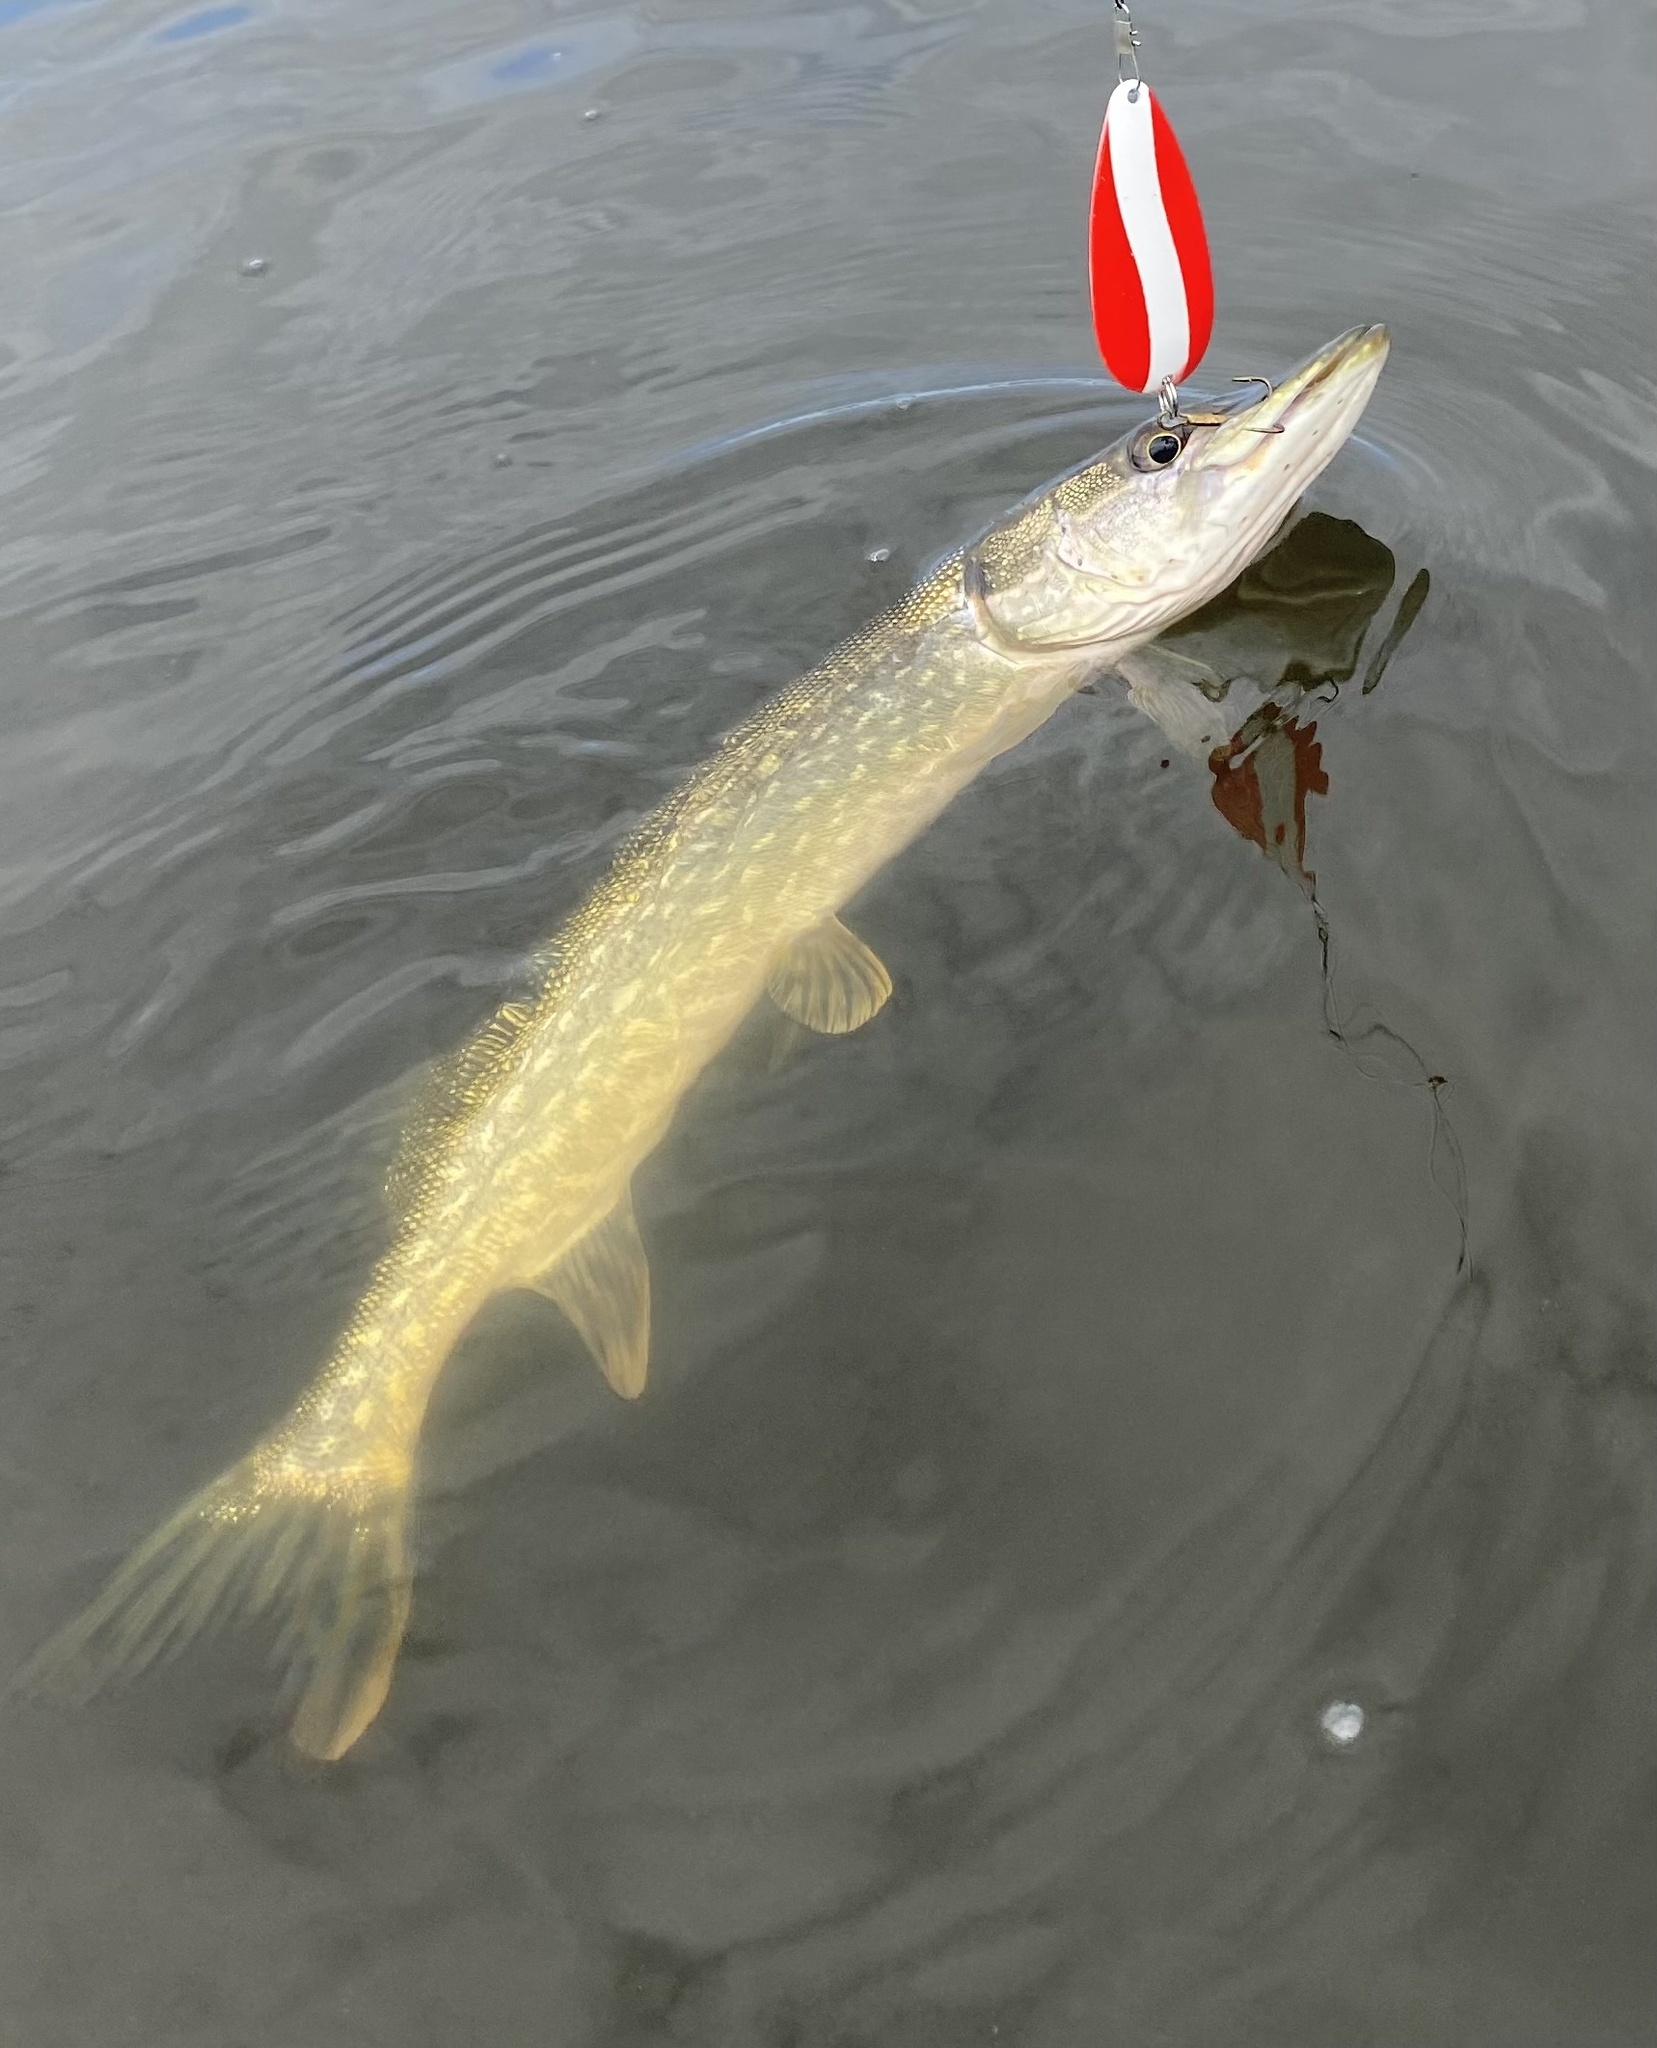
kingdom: Animalia
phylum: Chordata
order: Esociformes
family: Esocidae
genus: Esox
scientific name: Esox lucius
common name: Northern pike
